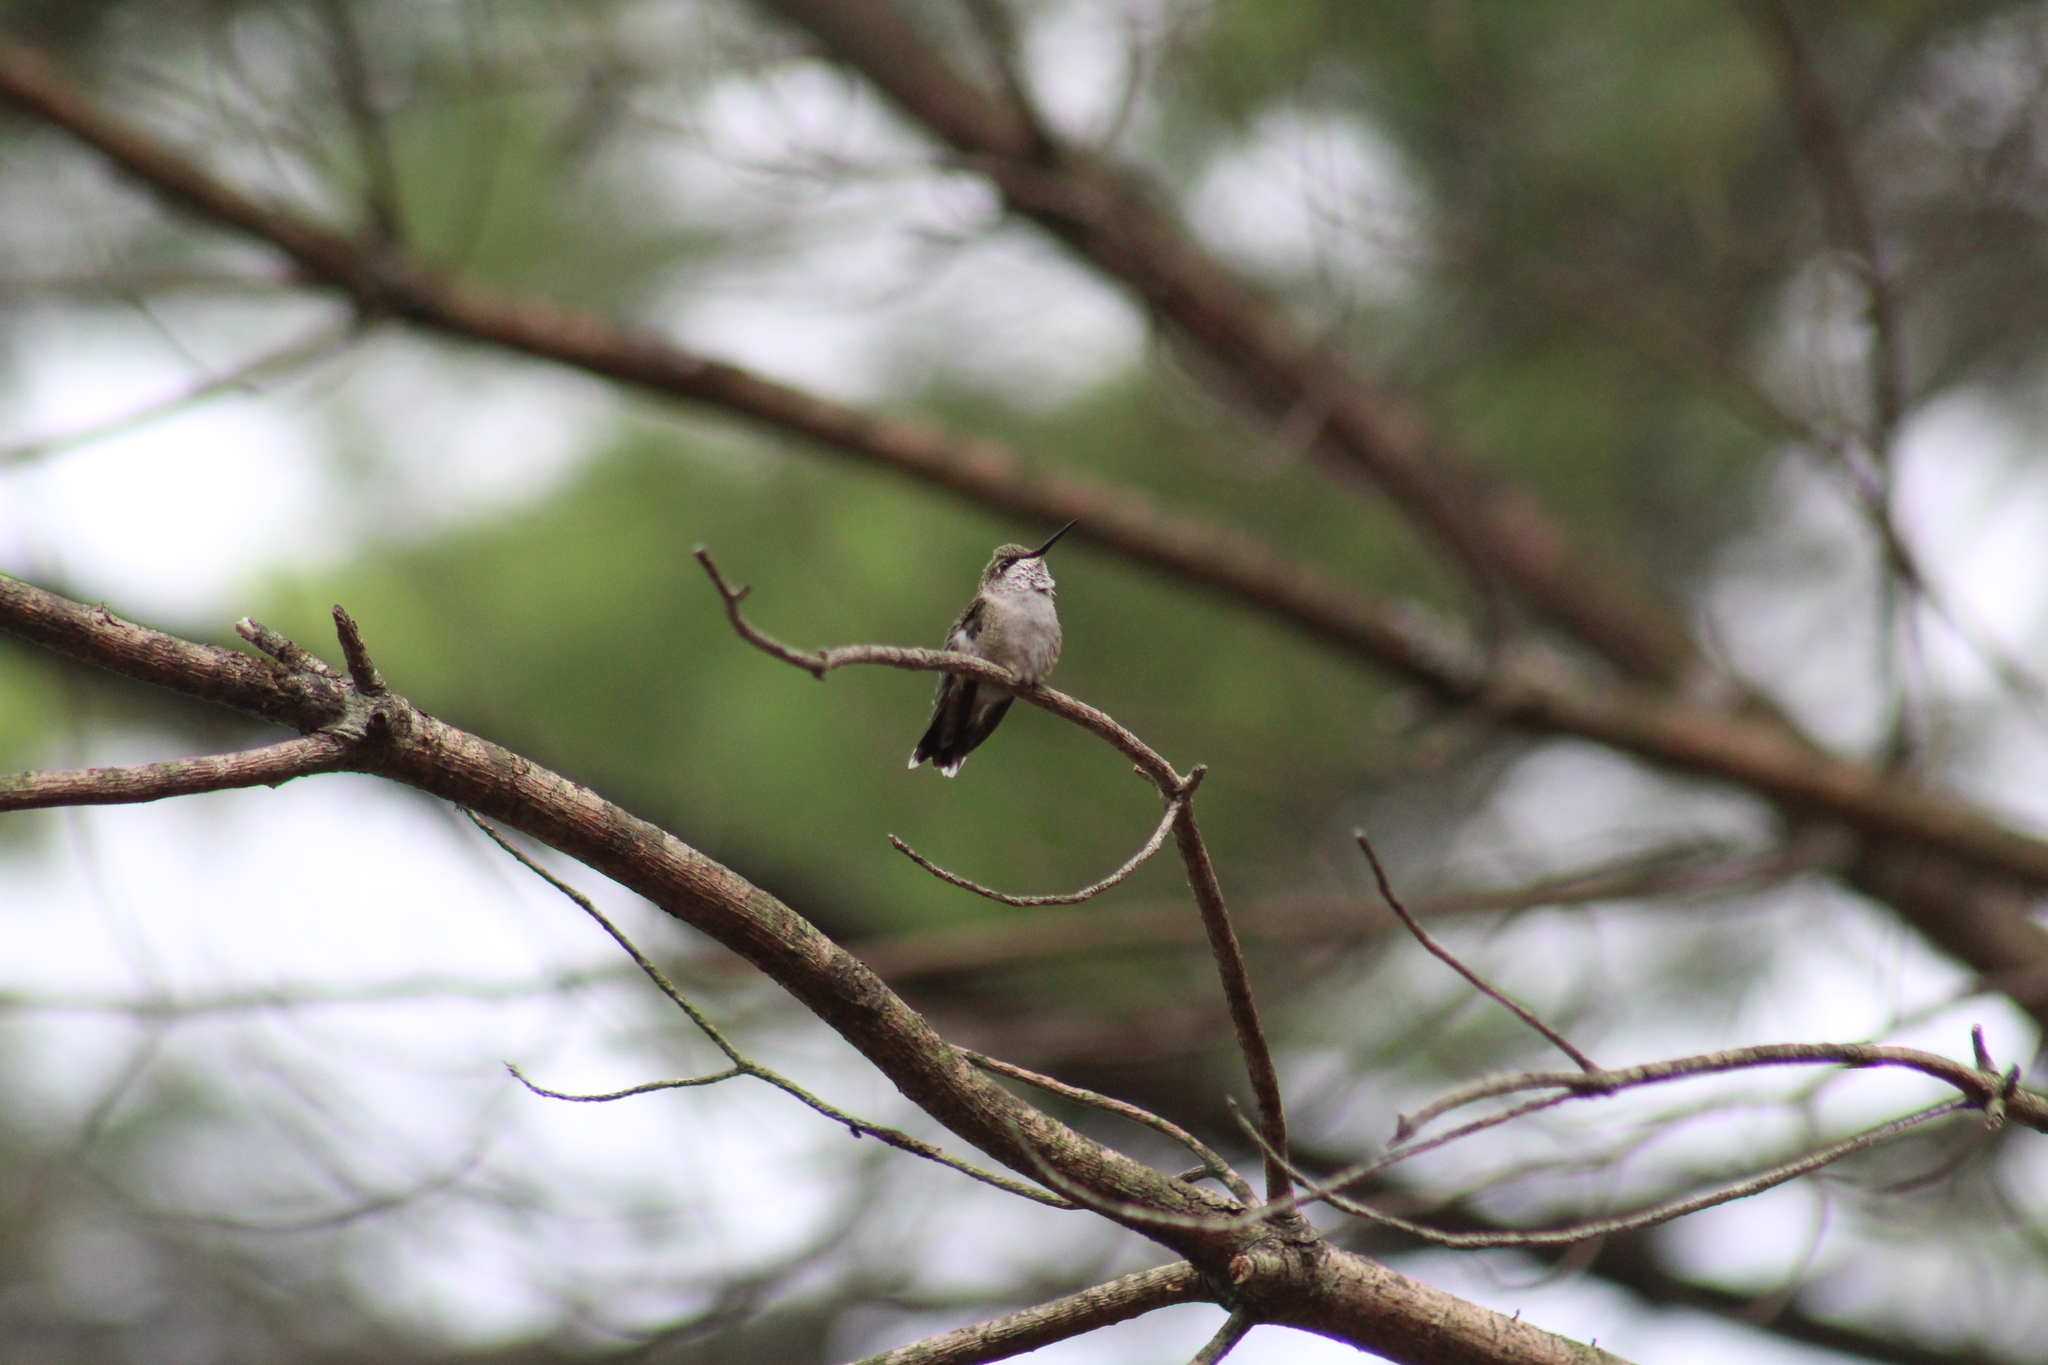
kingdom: Animalia
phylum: Chordata
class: Aves
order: Apodiformes
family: Trochilidae
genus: Archilochus
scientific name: Archilochus colubris
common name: Ruby-throated hummingbird
